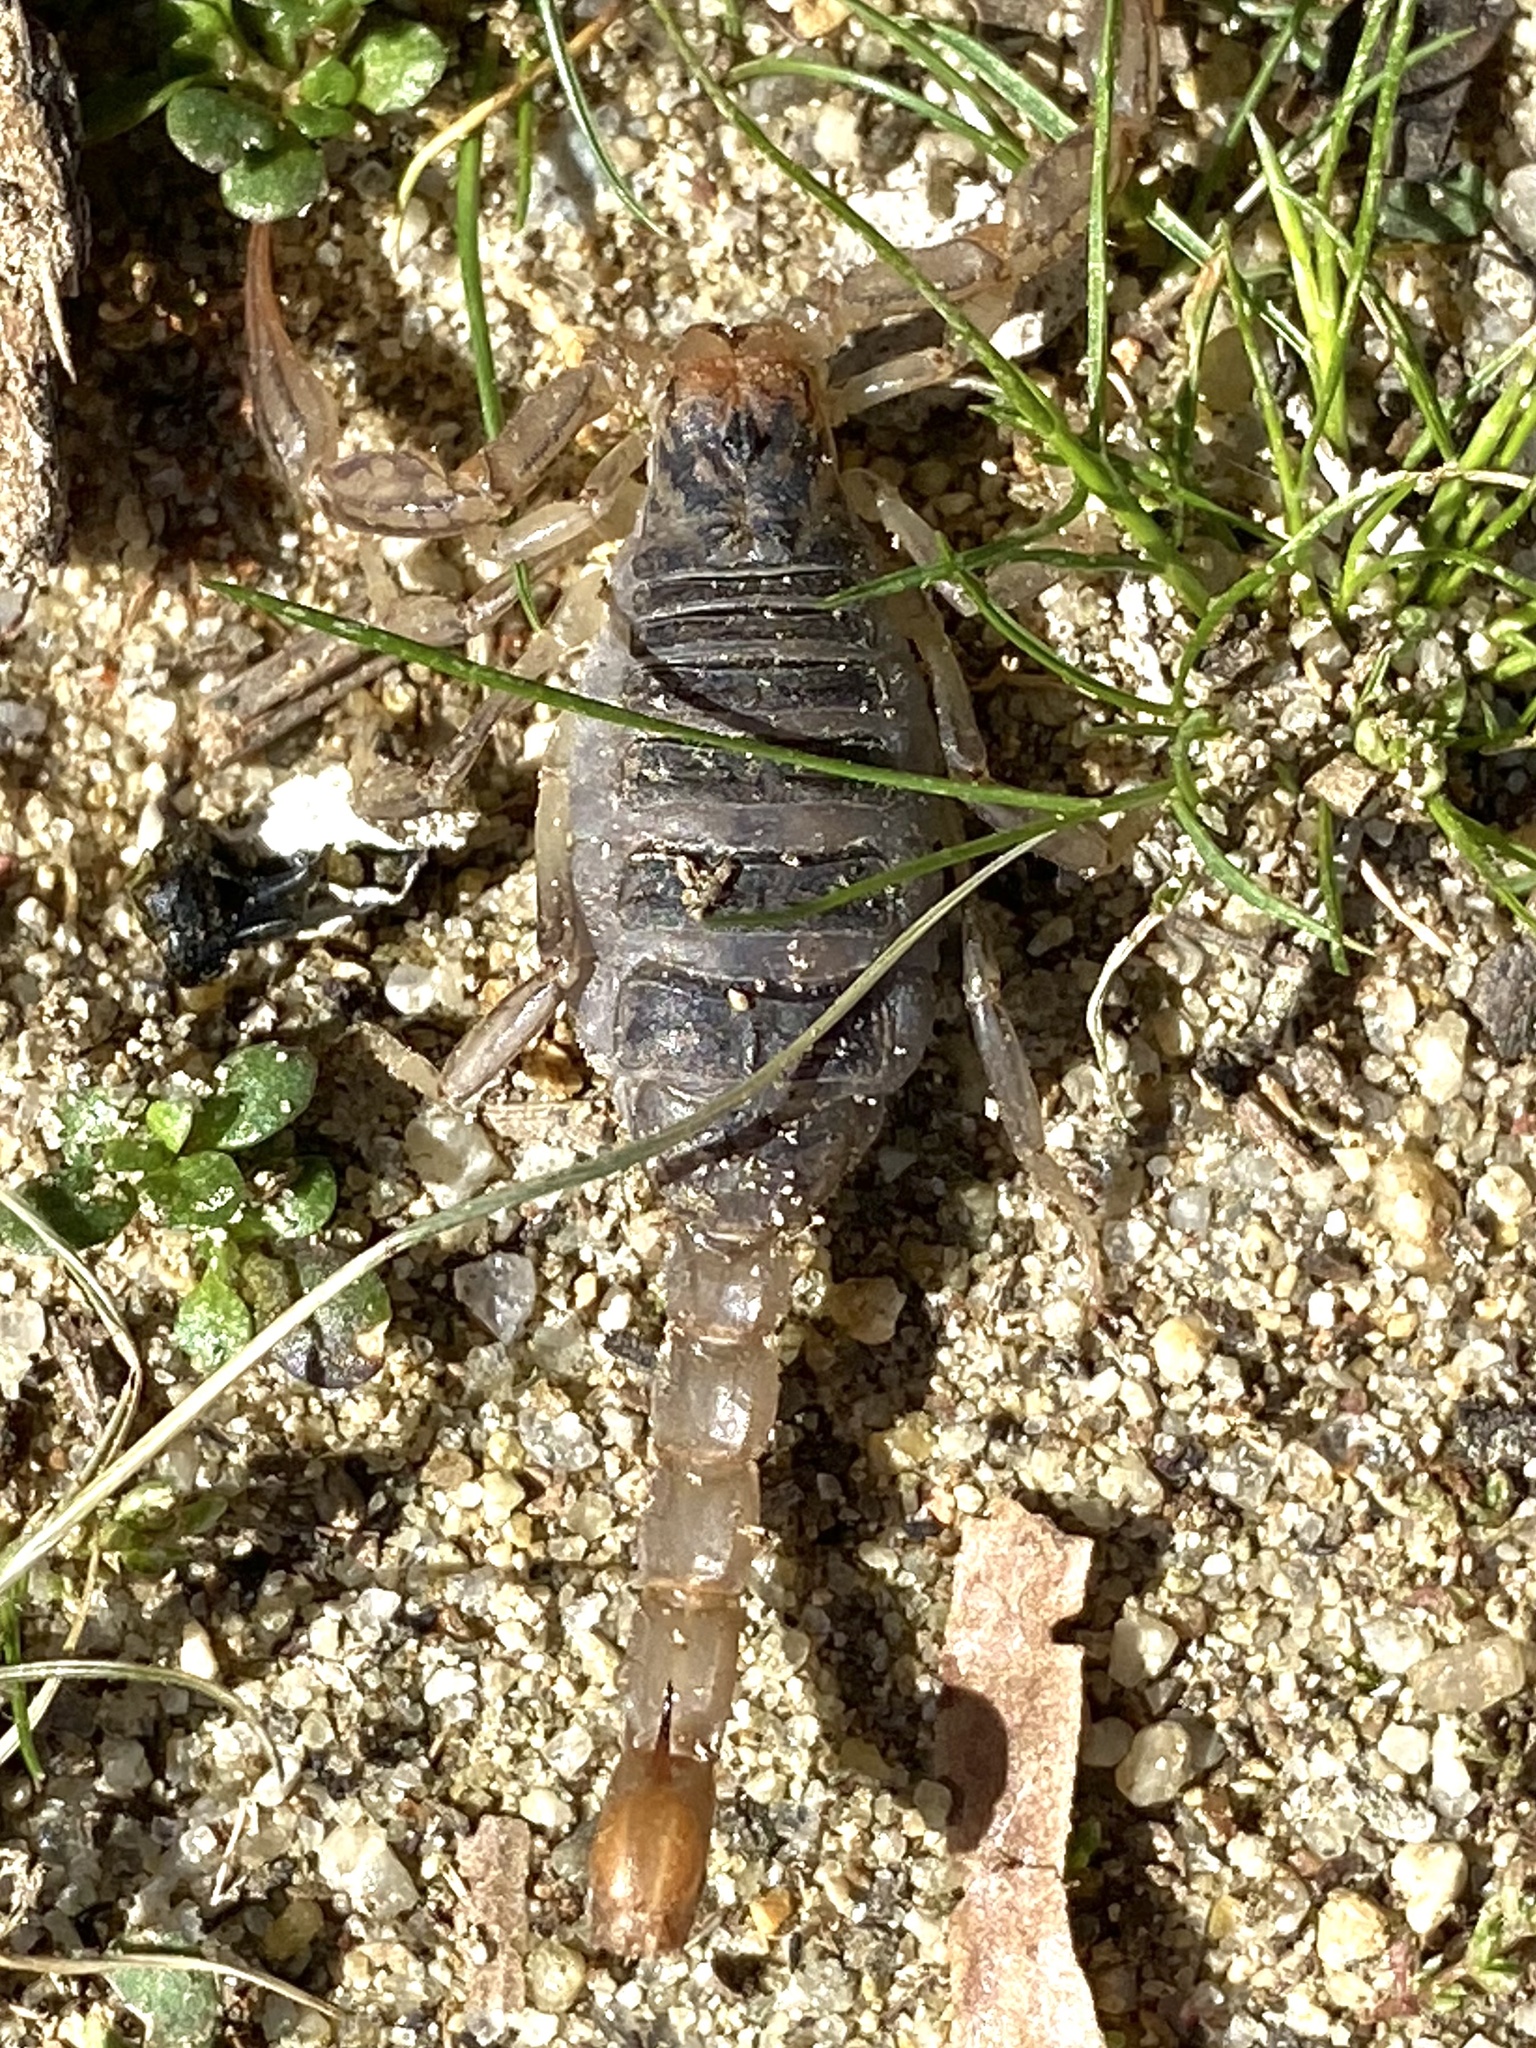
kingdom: Animalia
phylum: Arthropoda
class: Arachnida
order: Scorpiones
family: Vaejovidae
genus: Paruroctonus
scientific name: Paruroctonus silvestrii
